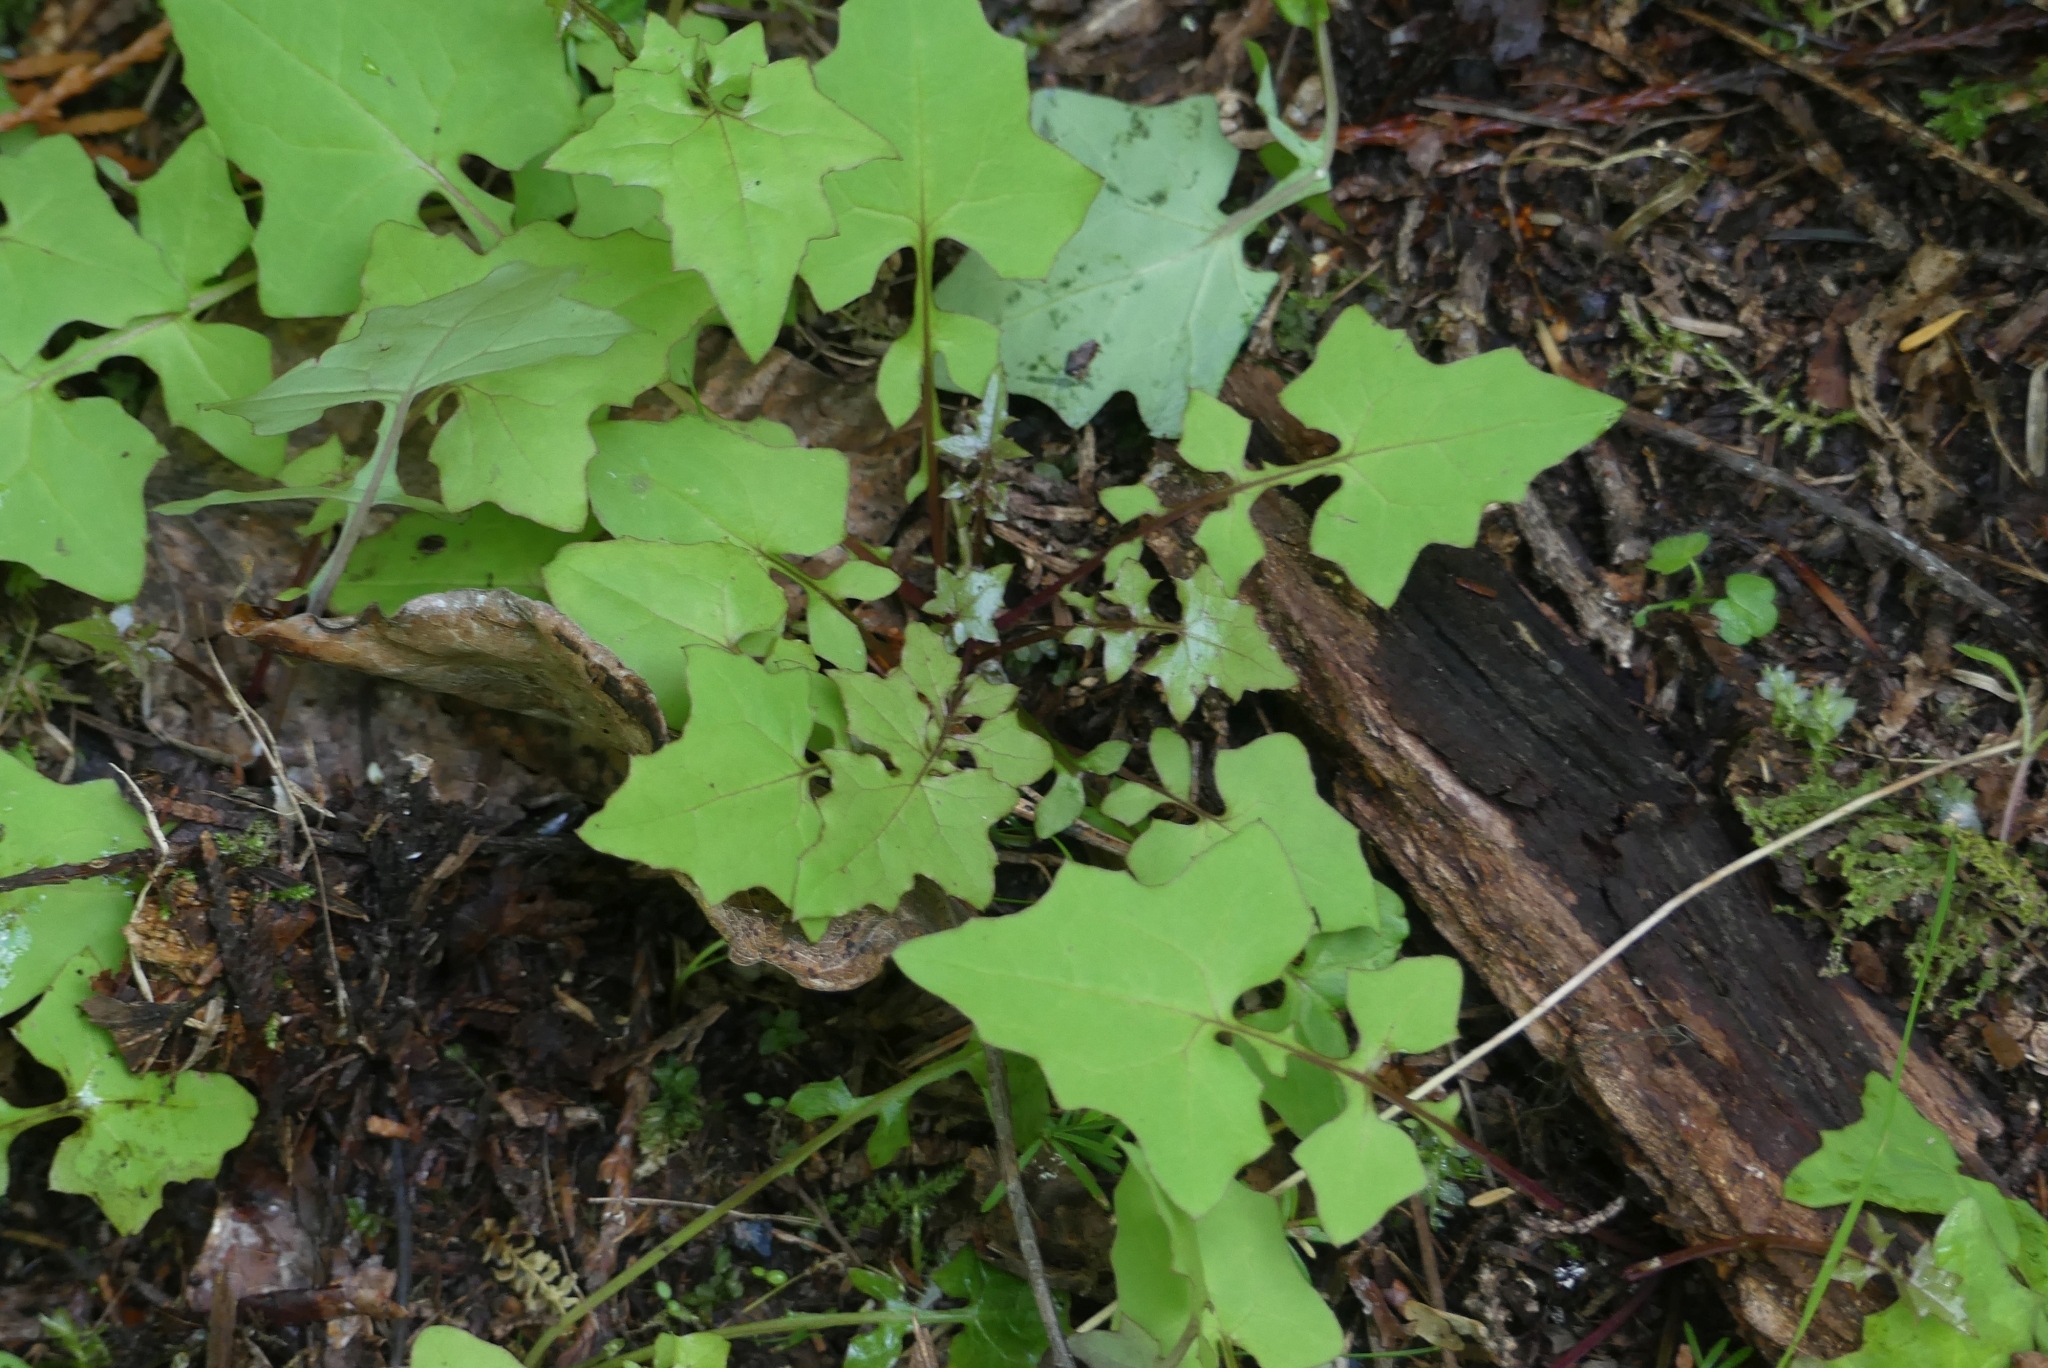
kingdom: Plantae
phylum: Tracheophyta
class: Magnoliopsida
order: Asterales
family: Asteraceae
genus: Mycelis
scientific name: Mycelis muralis
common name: Wall lettuce
